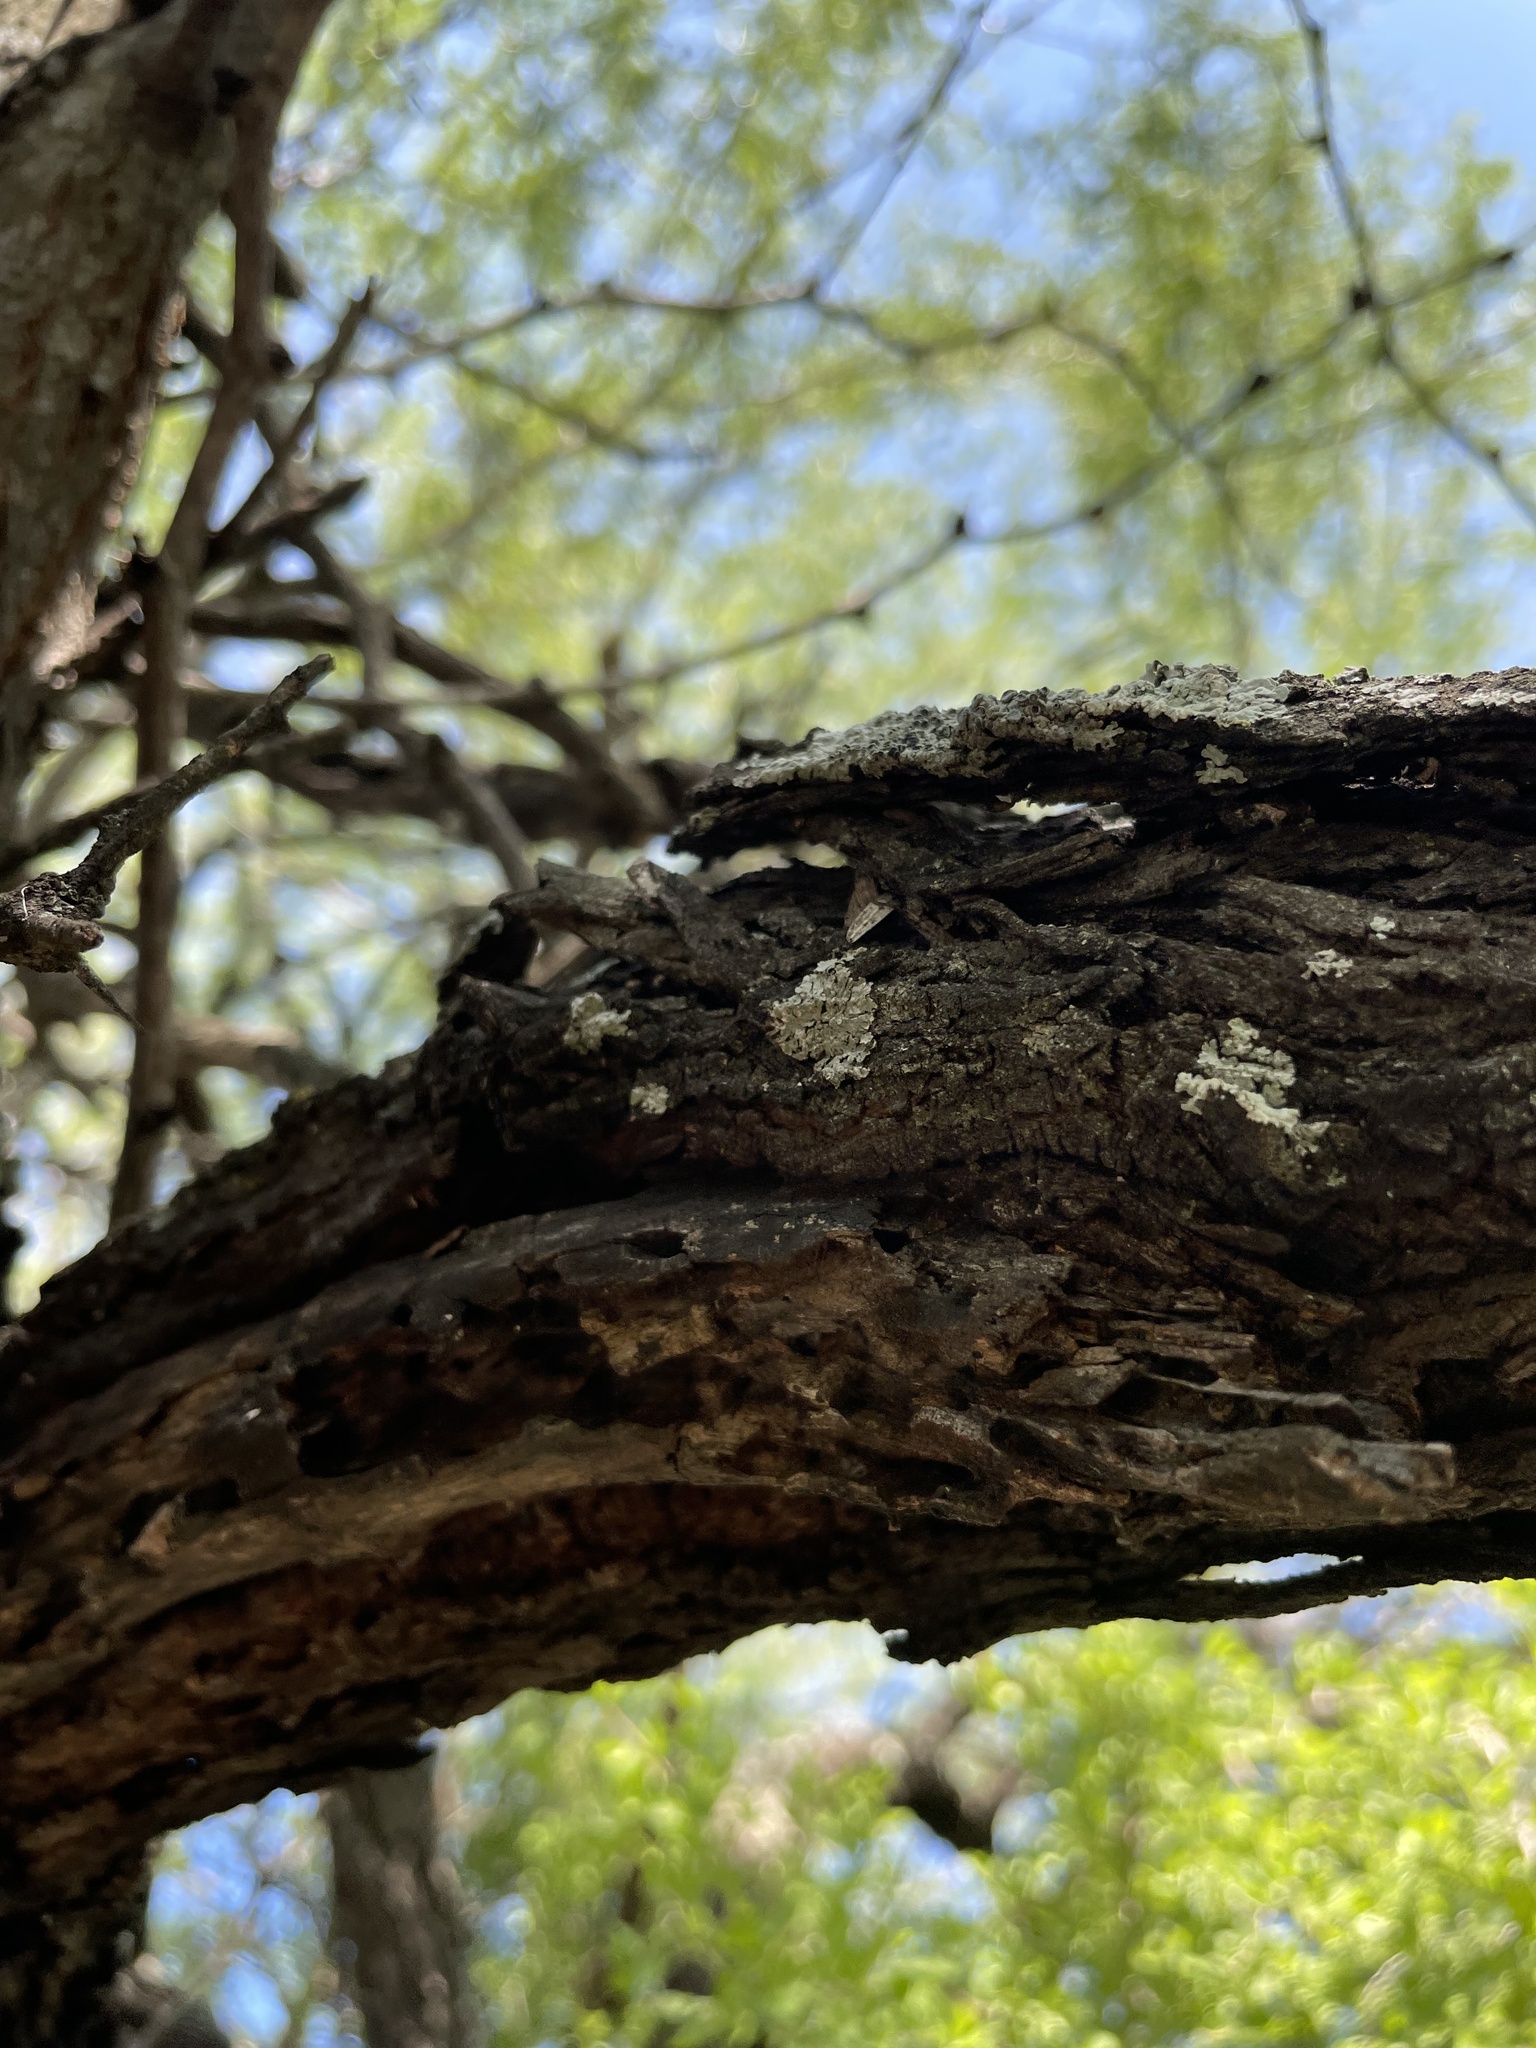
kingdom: Plantae
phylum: Tracheophyta
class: Magnoliopsida
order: Rosales
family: Rhamnaceae
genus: Condalia
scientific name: Condalia hookeri
